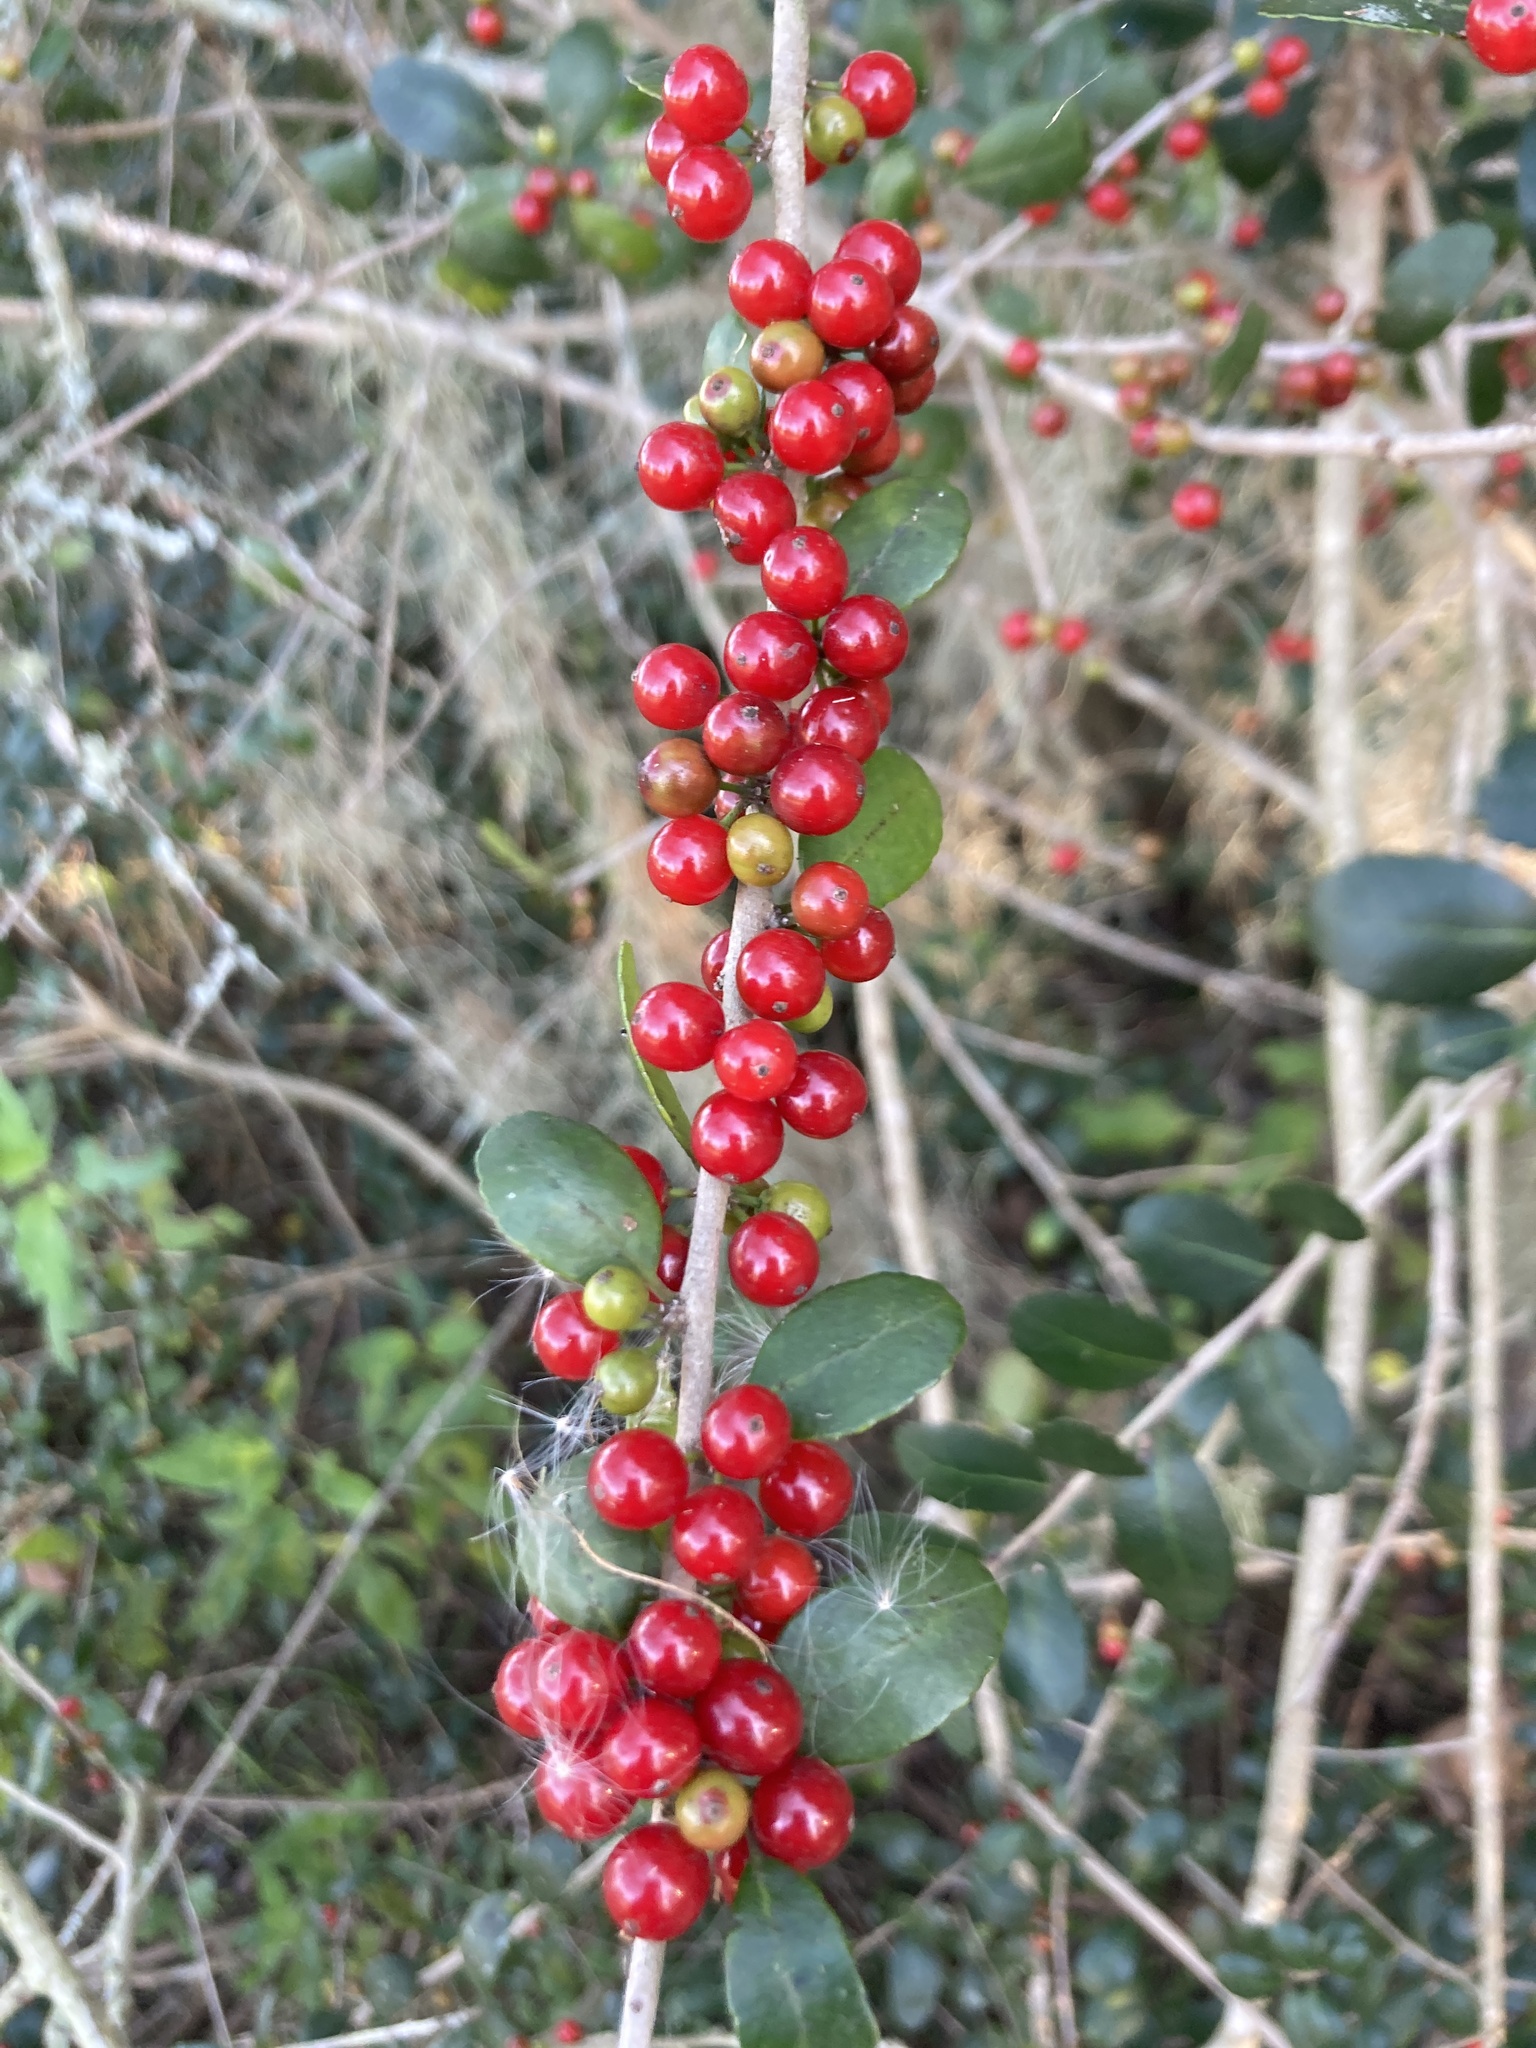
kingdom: Plantae
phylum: Tracheophyta
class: Magnoliopsida
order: Aquifoliales
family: Aquifoliaceae
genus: Ilex
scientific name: Ilex vomitoria
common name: Yaupon holly
